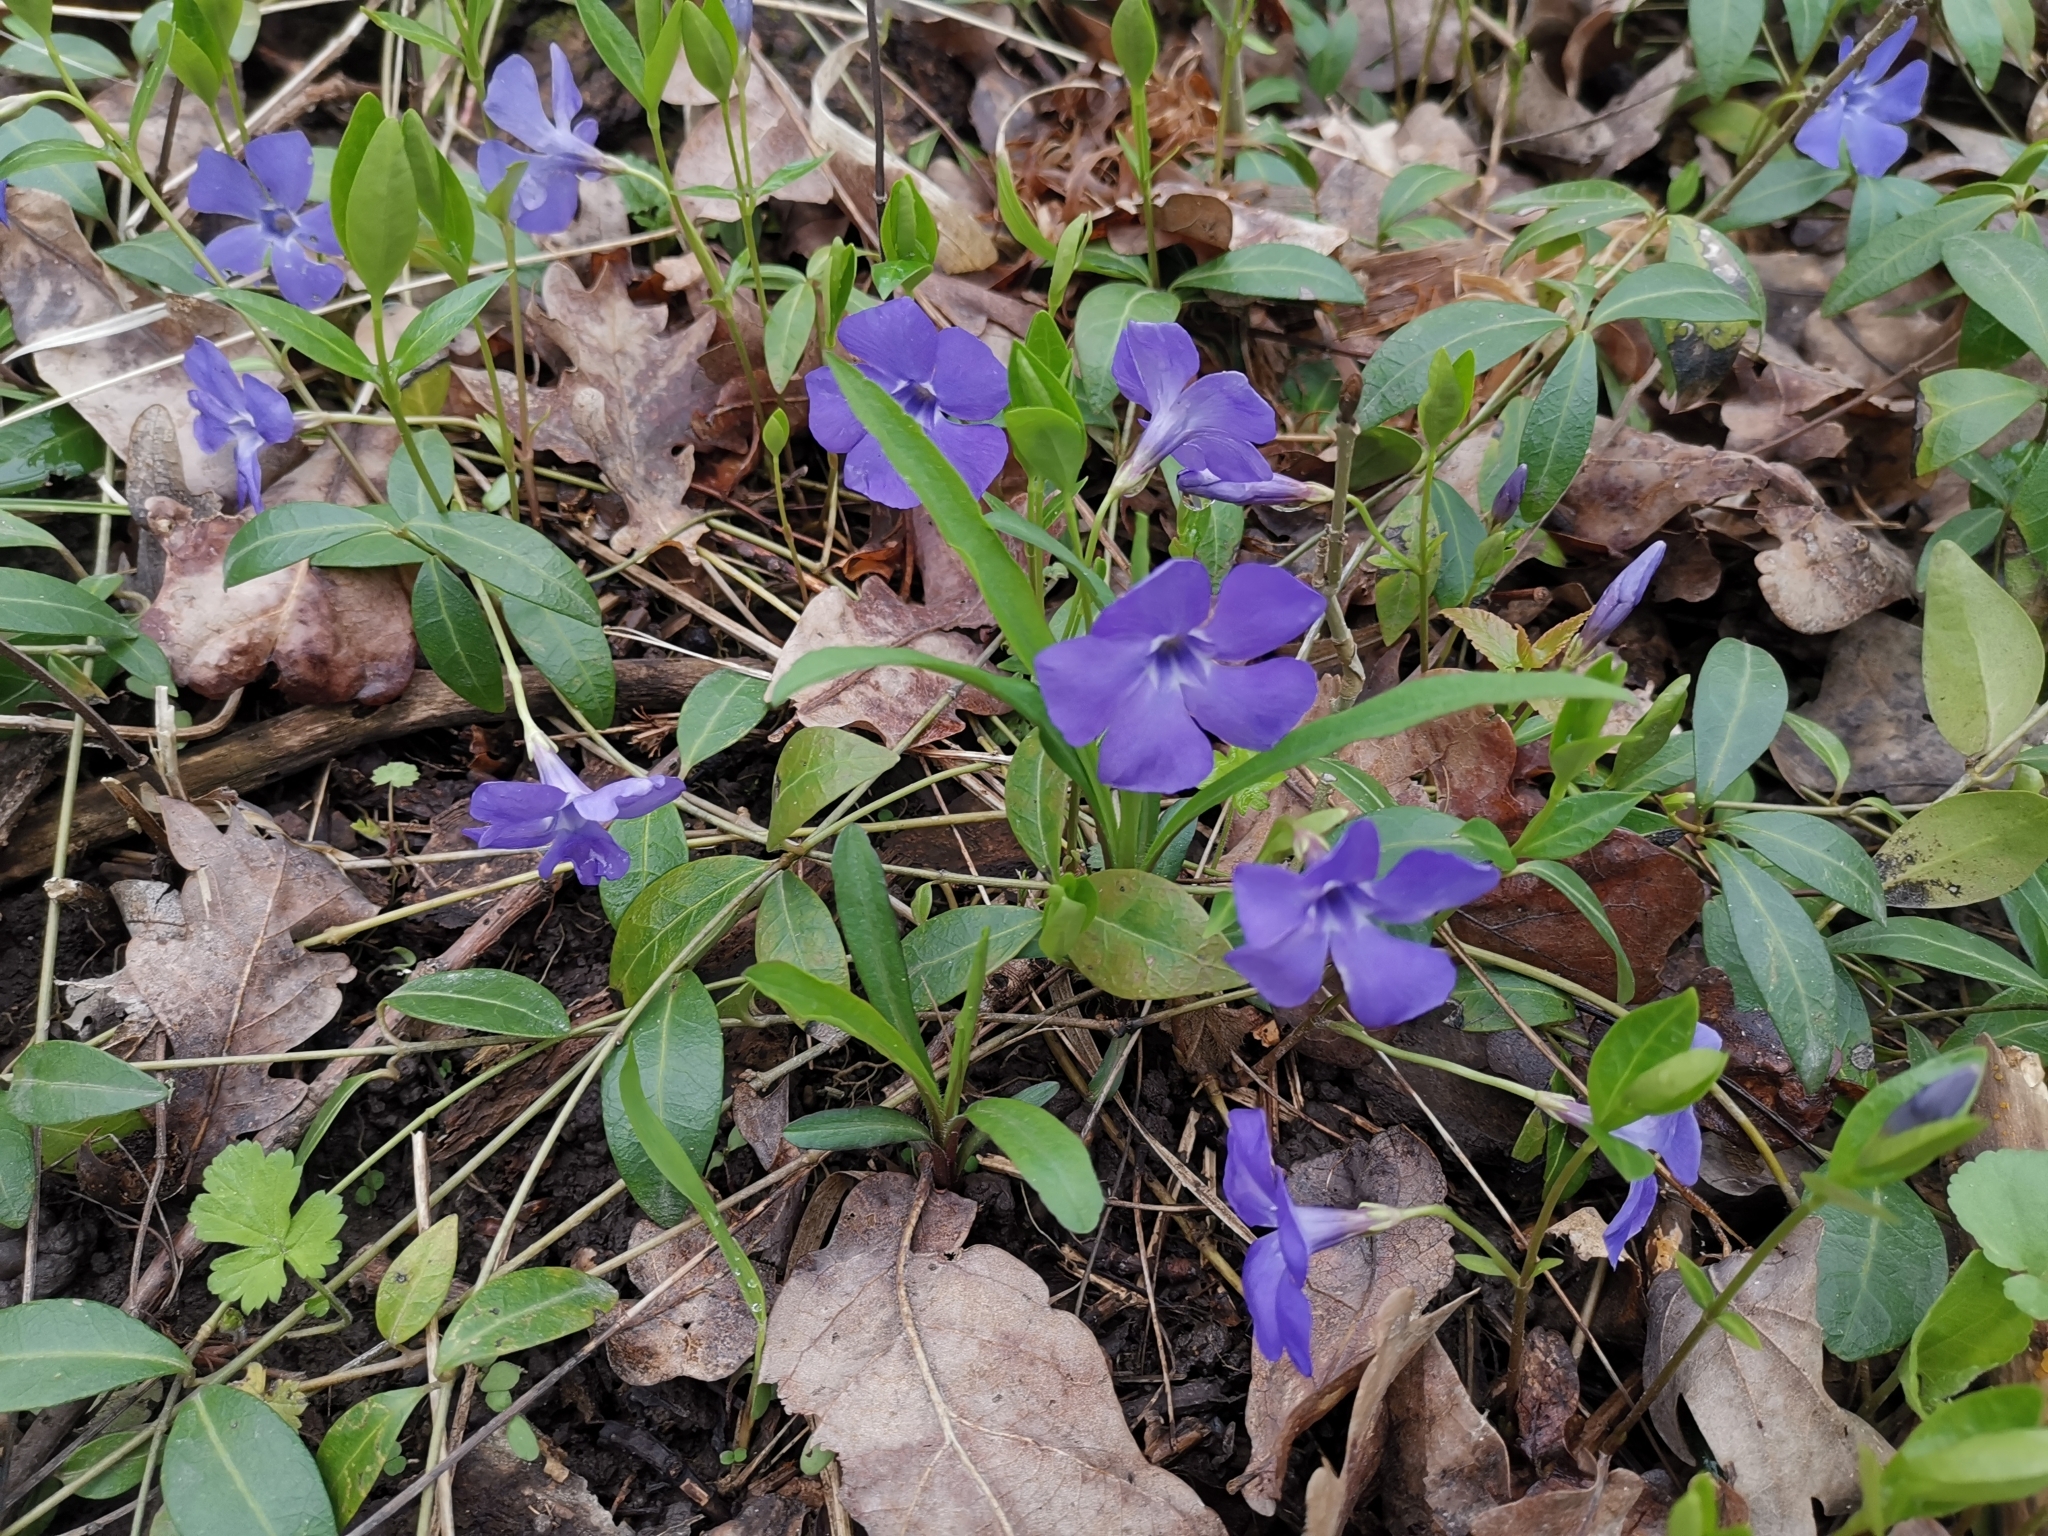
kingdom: Plantae
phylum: Tracheophyta
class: Magnoliopsida
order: Gentianales
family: Apocynaceae
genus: Vinca
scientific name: Vinca minor
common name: Lesser periwinkle
